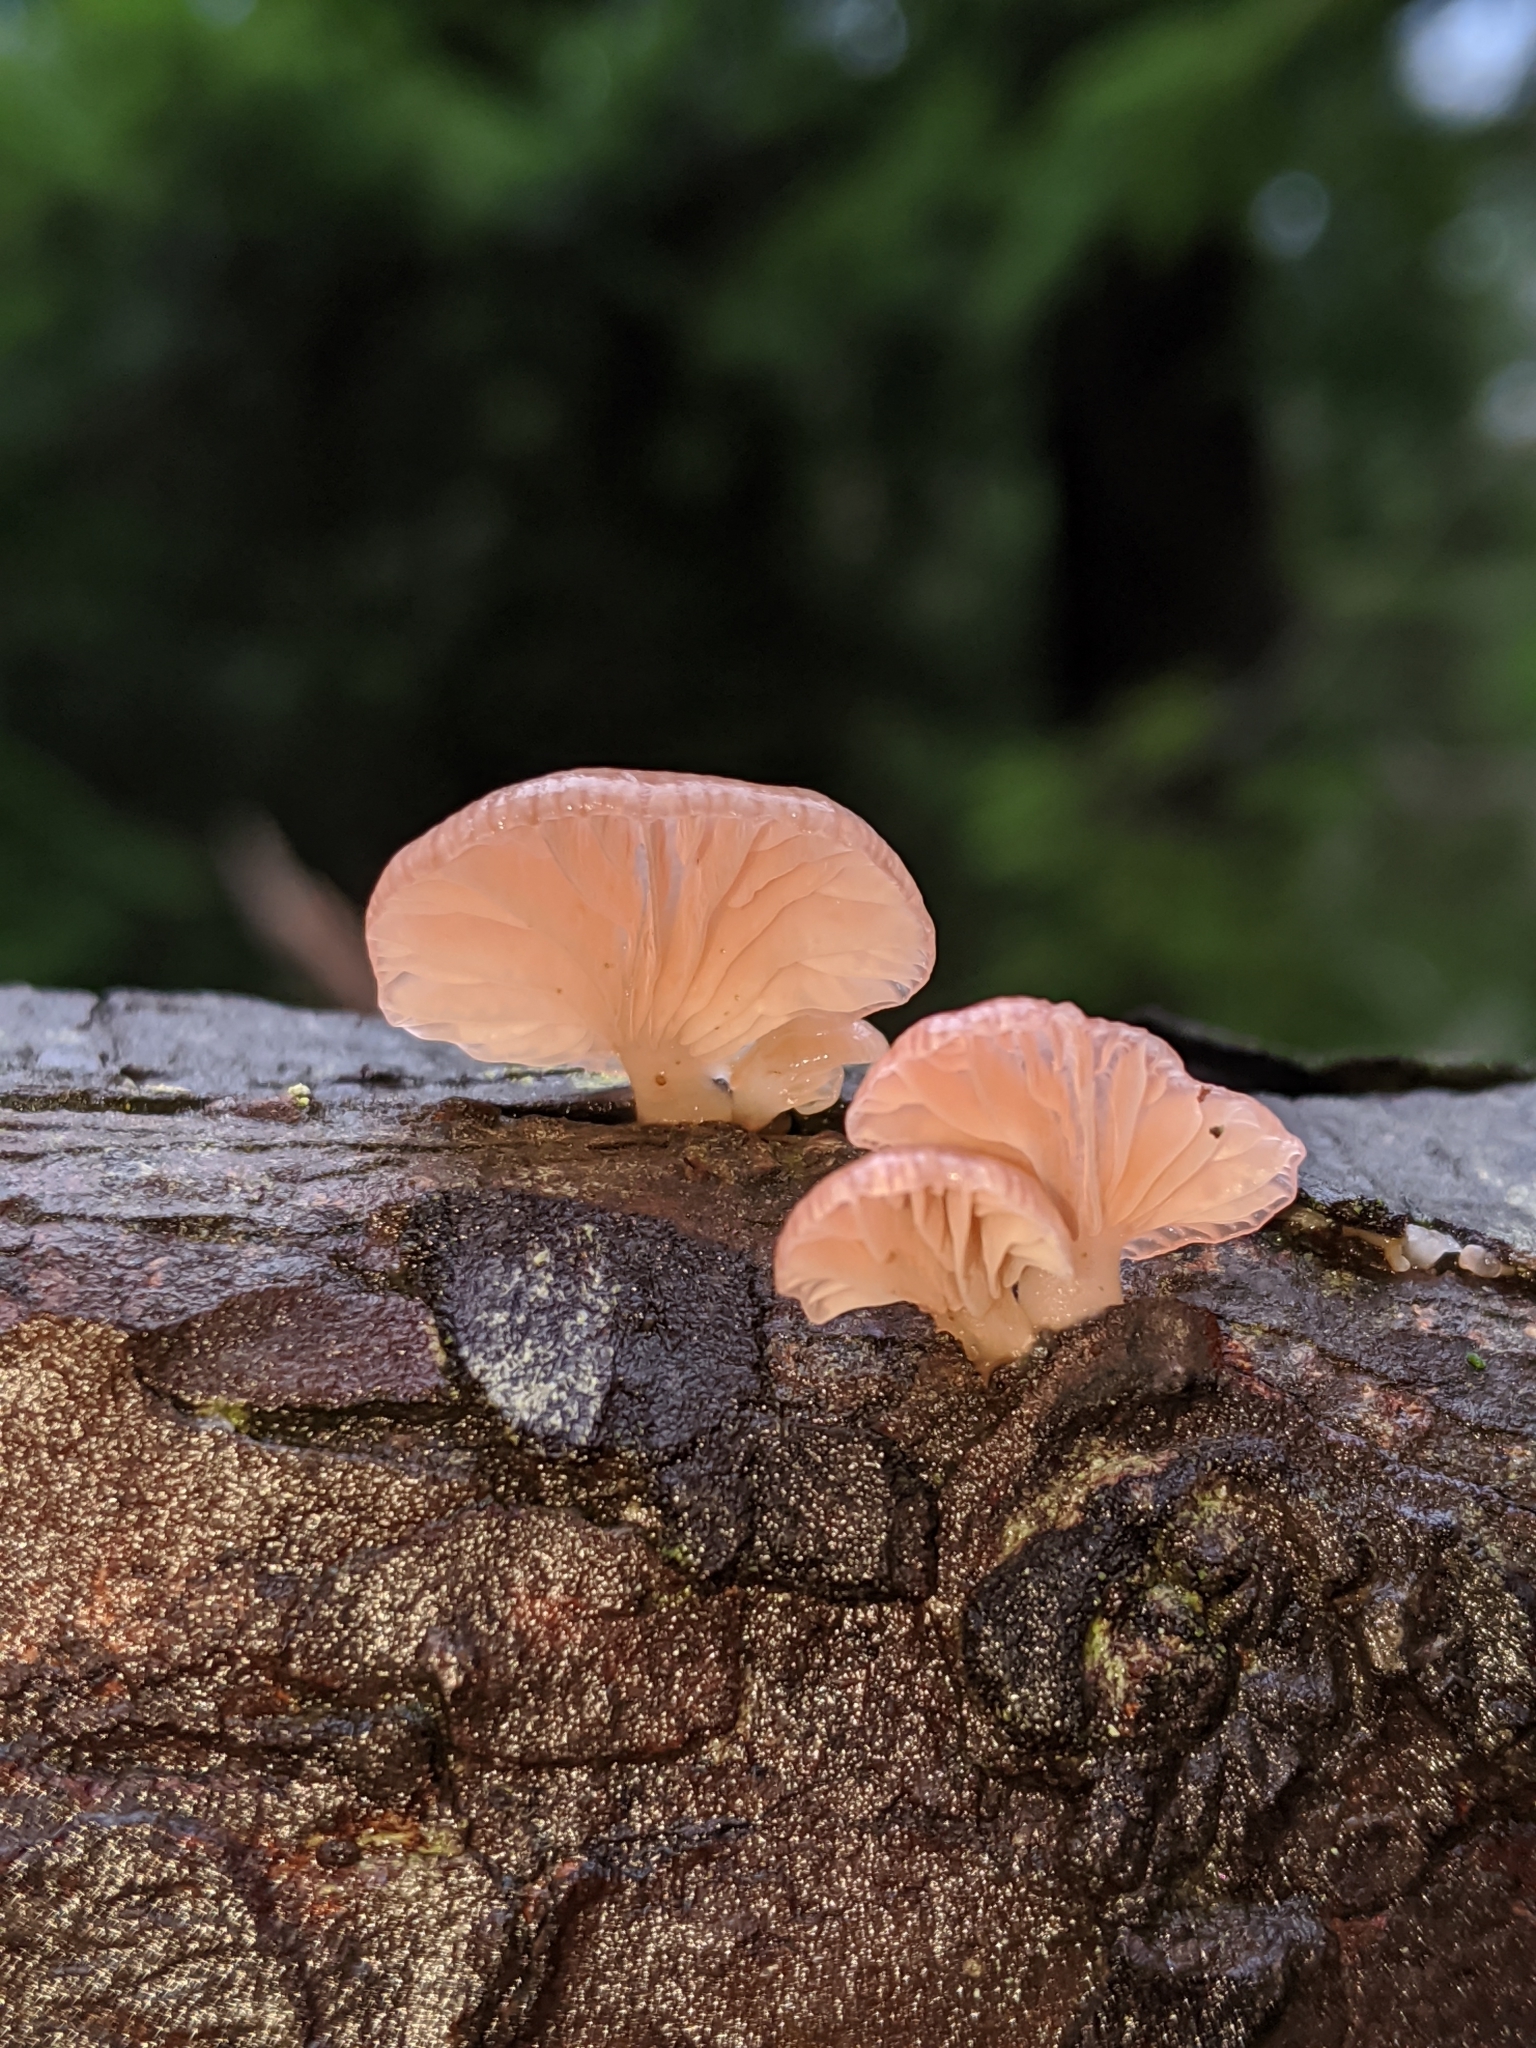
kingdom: Fungi
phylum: Basidiomycota
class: Agaricomycetes
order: Agaricales
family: Mycenaceae
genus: Panellus
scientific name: Panellus longinquus
